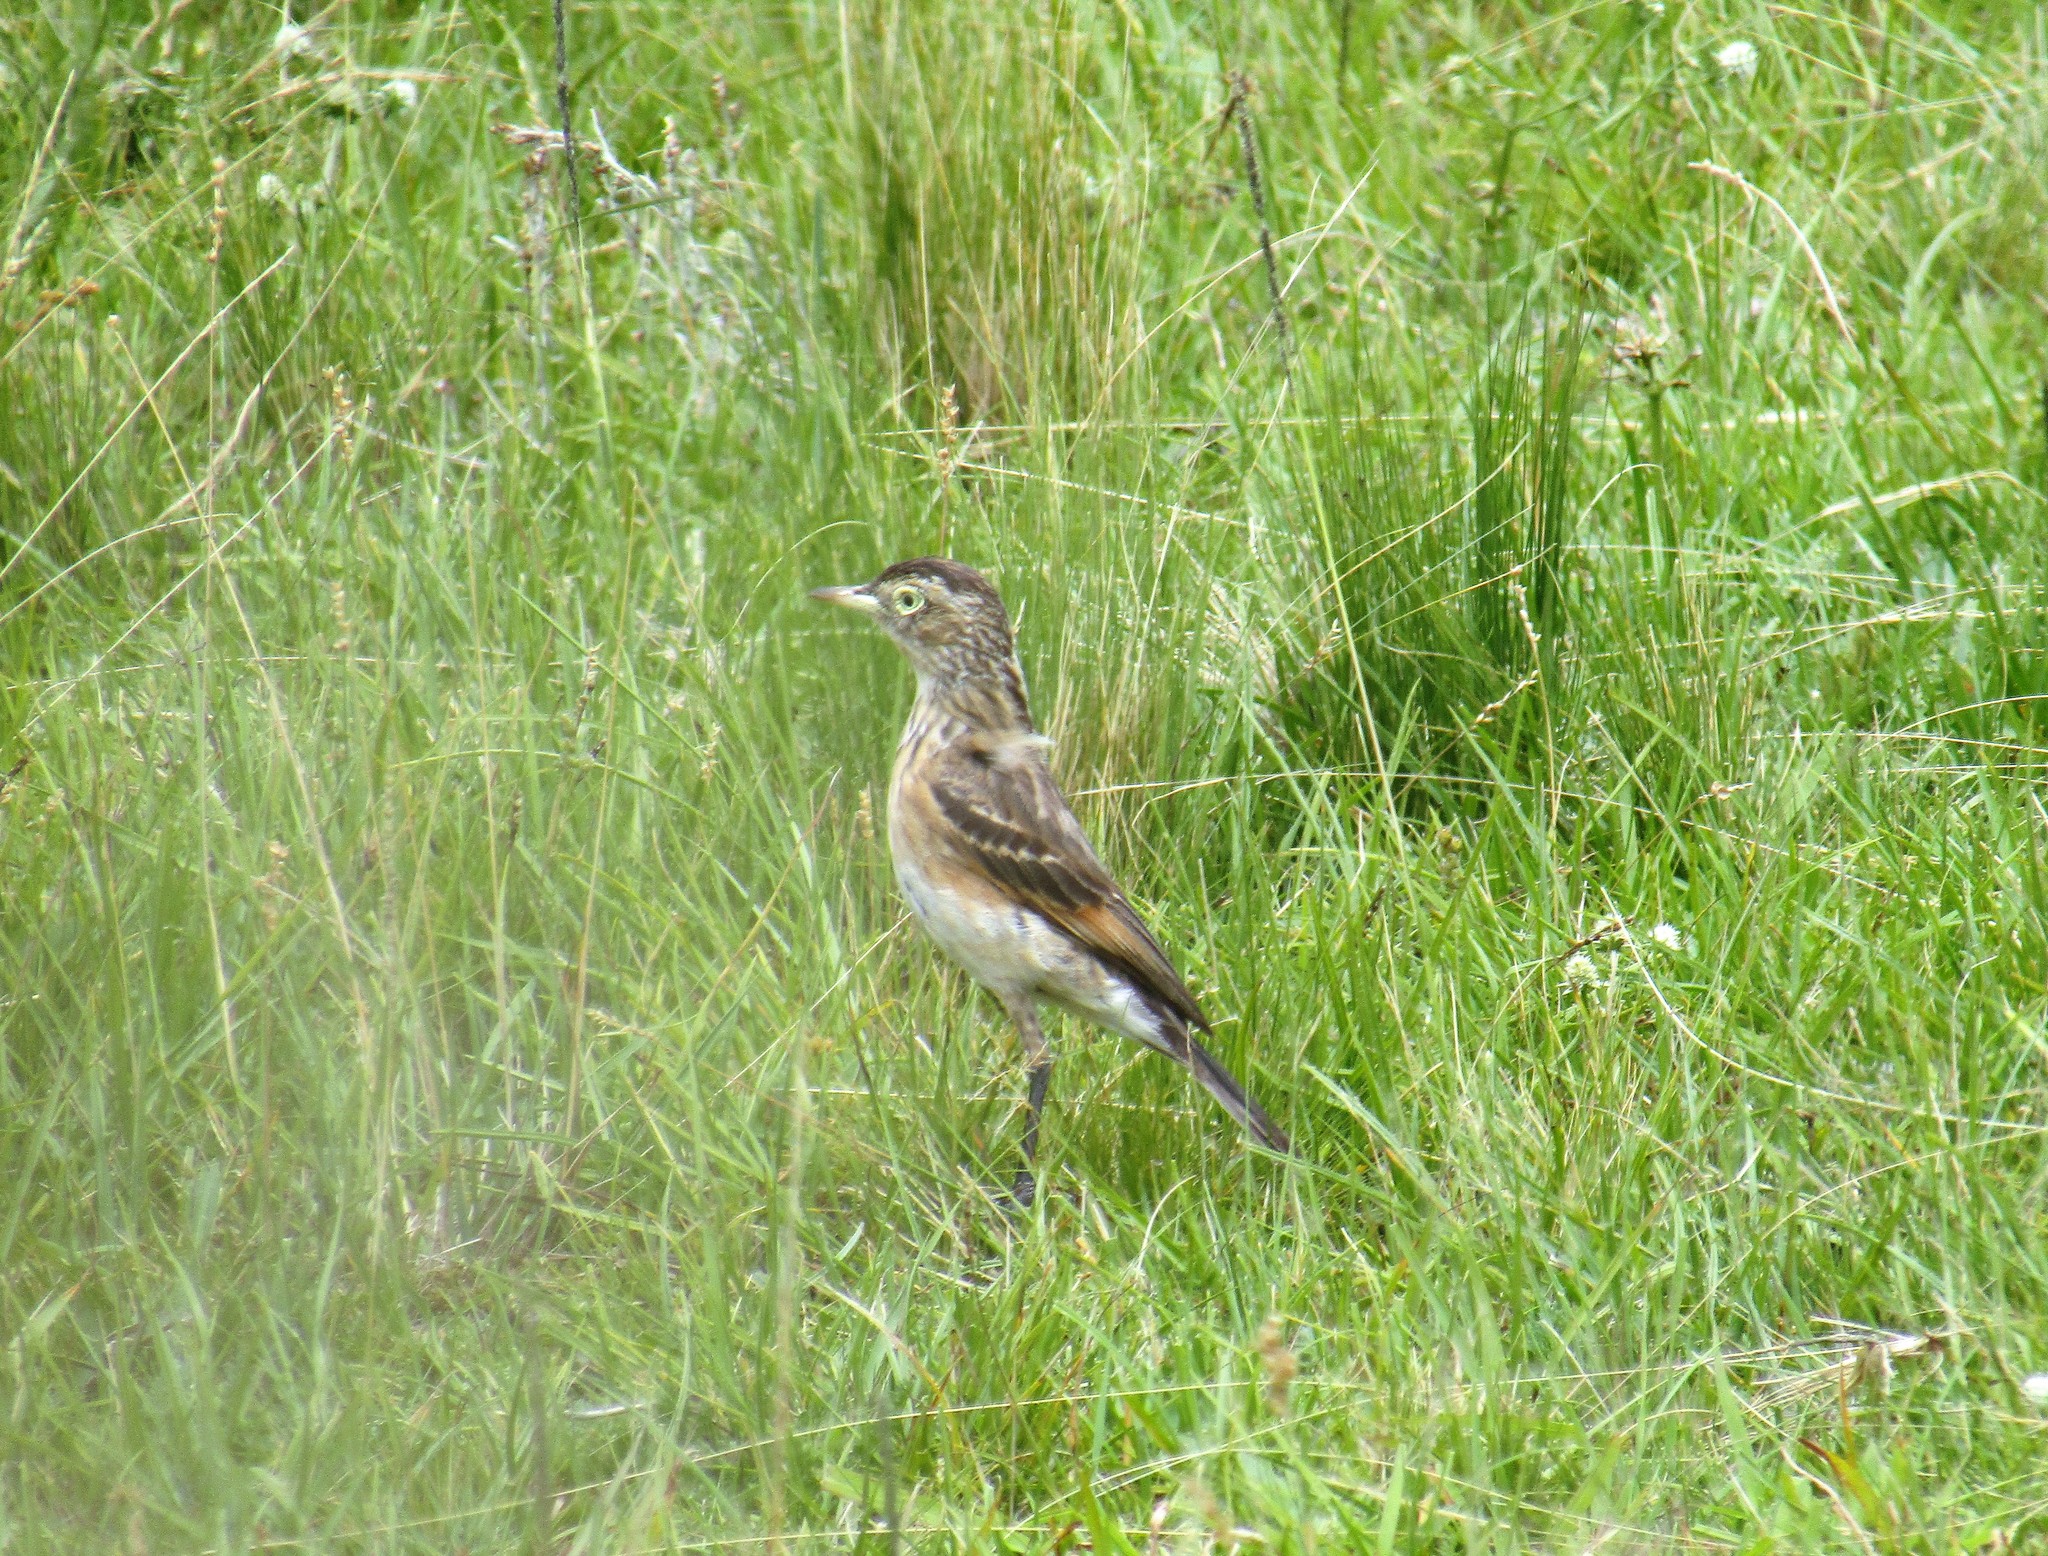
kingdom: Animalia
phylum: Chordata
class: Aves
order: Passeriformes
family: Tyrannidae
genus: Hymenops
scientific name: Hymenops perspicillatus
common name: Spectacled tyrant
